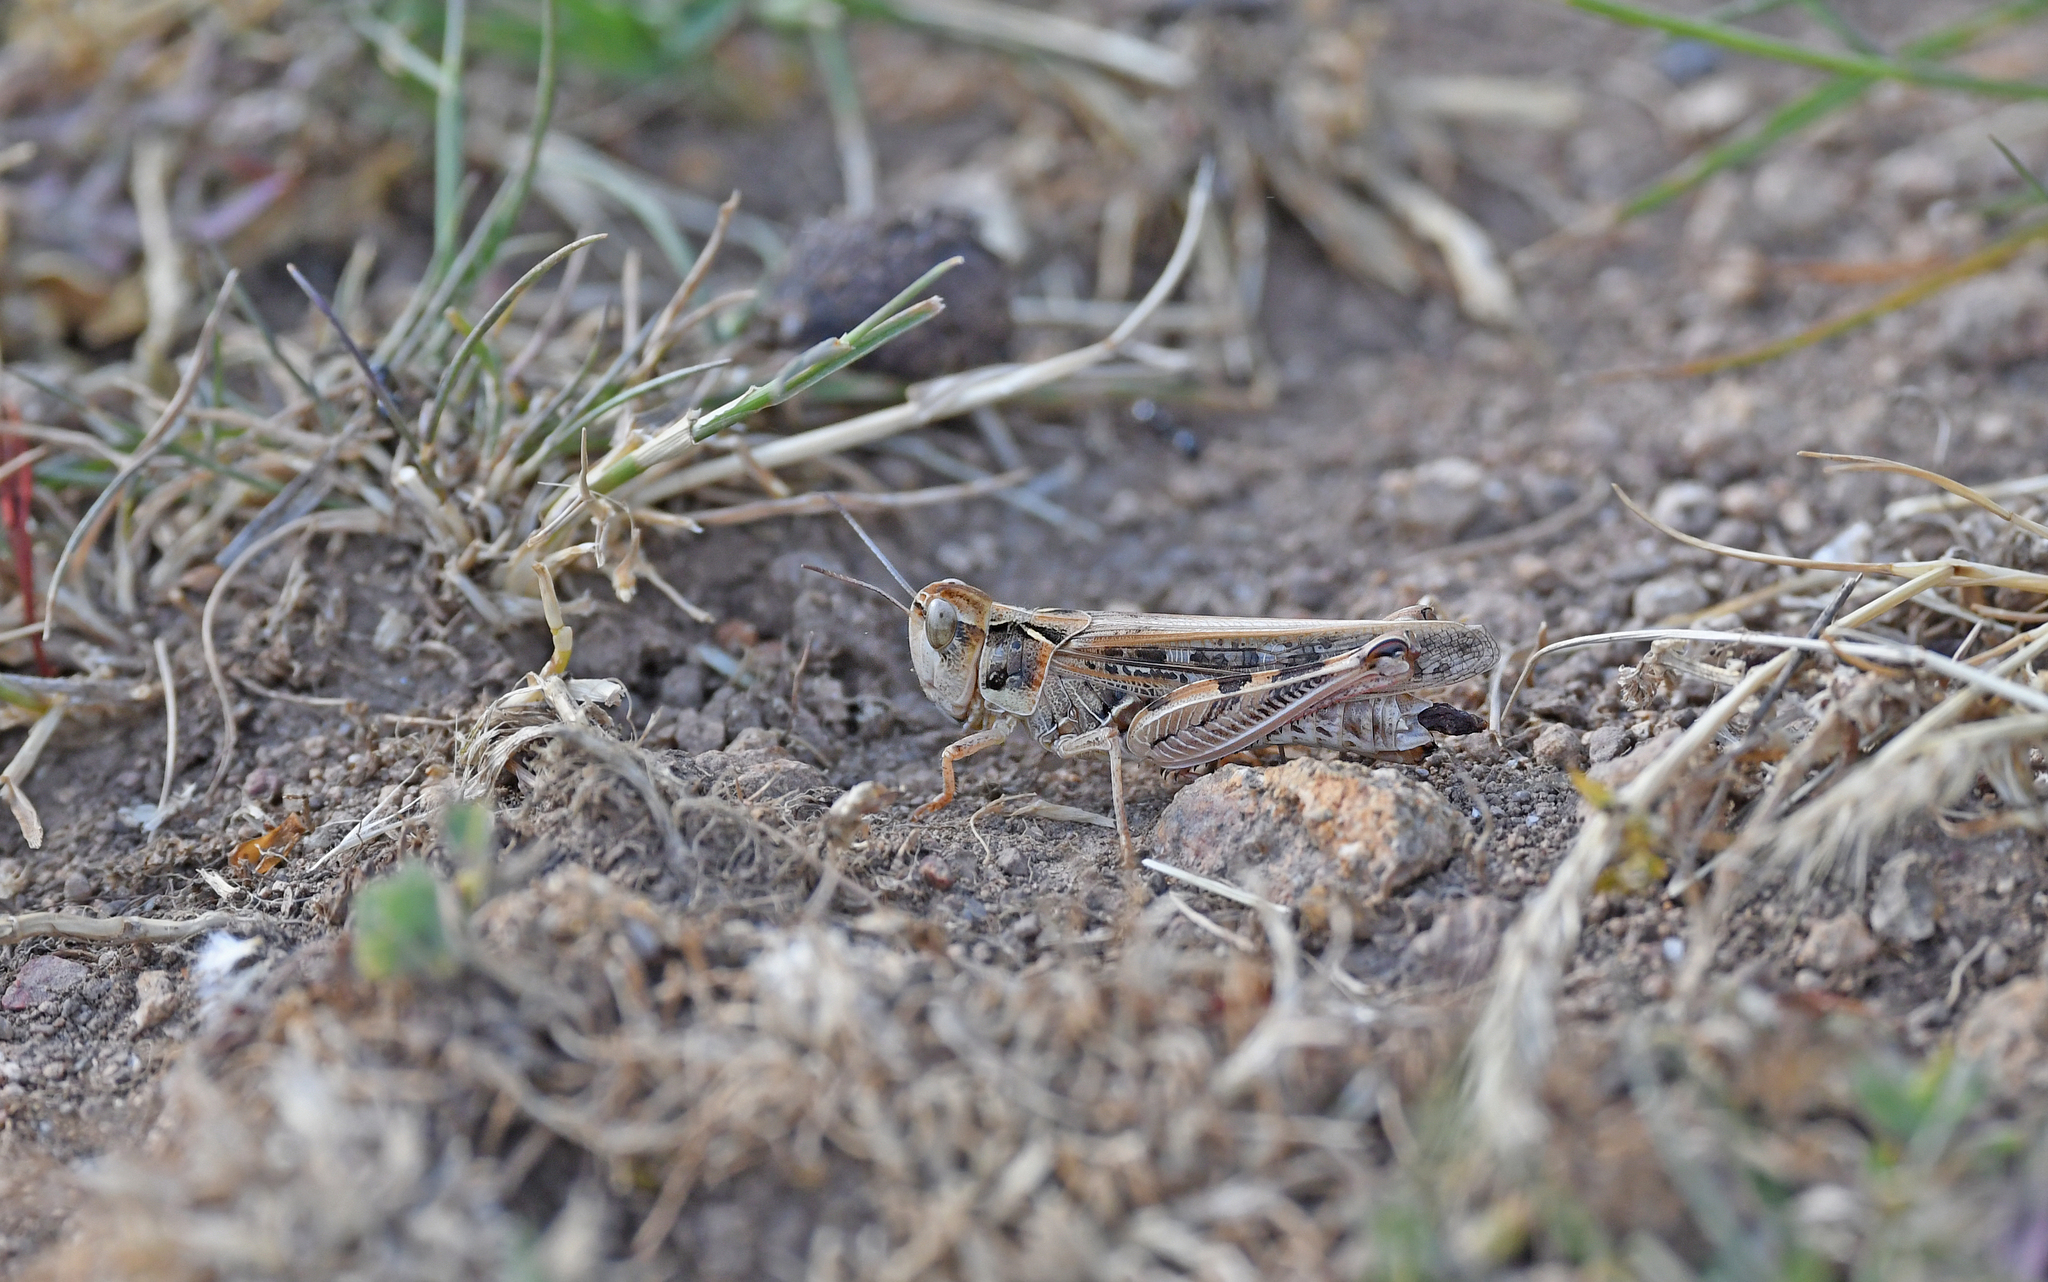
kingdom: Animalia
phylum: Arthropoda
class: Insecta
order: Orthoptera
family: Acrididae
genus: Dociostaurus
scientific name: Dociostaurus maroccanus
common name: Moroccan locust
